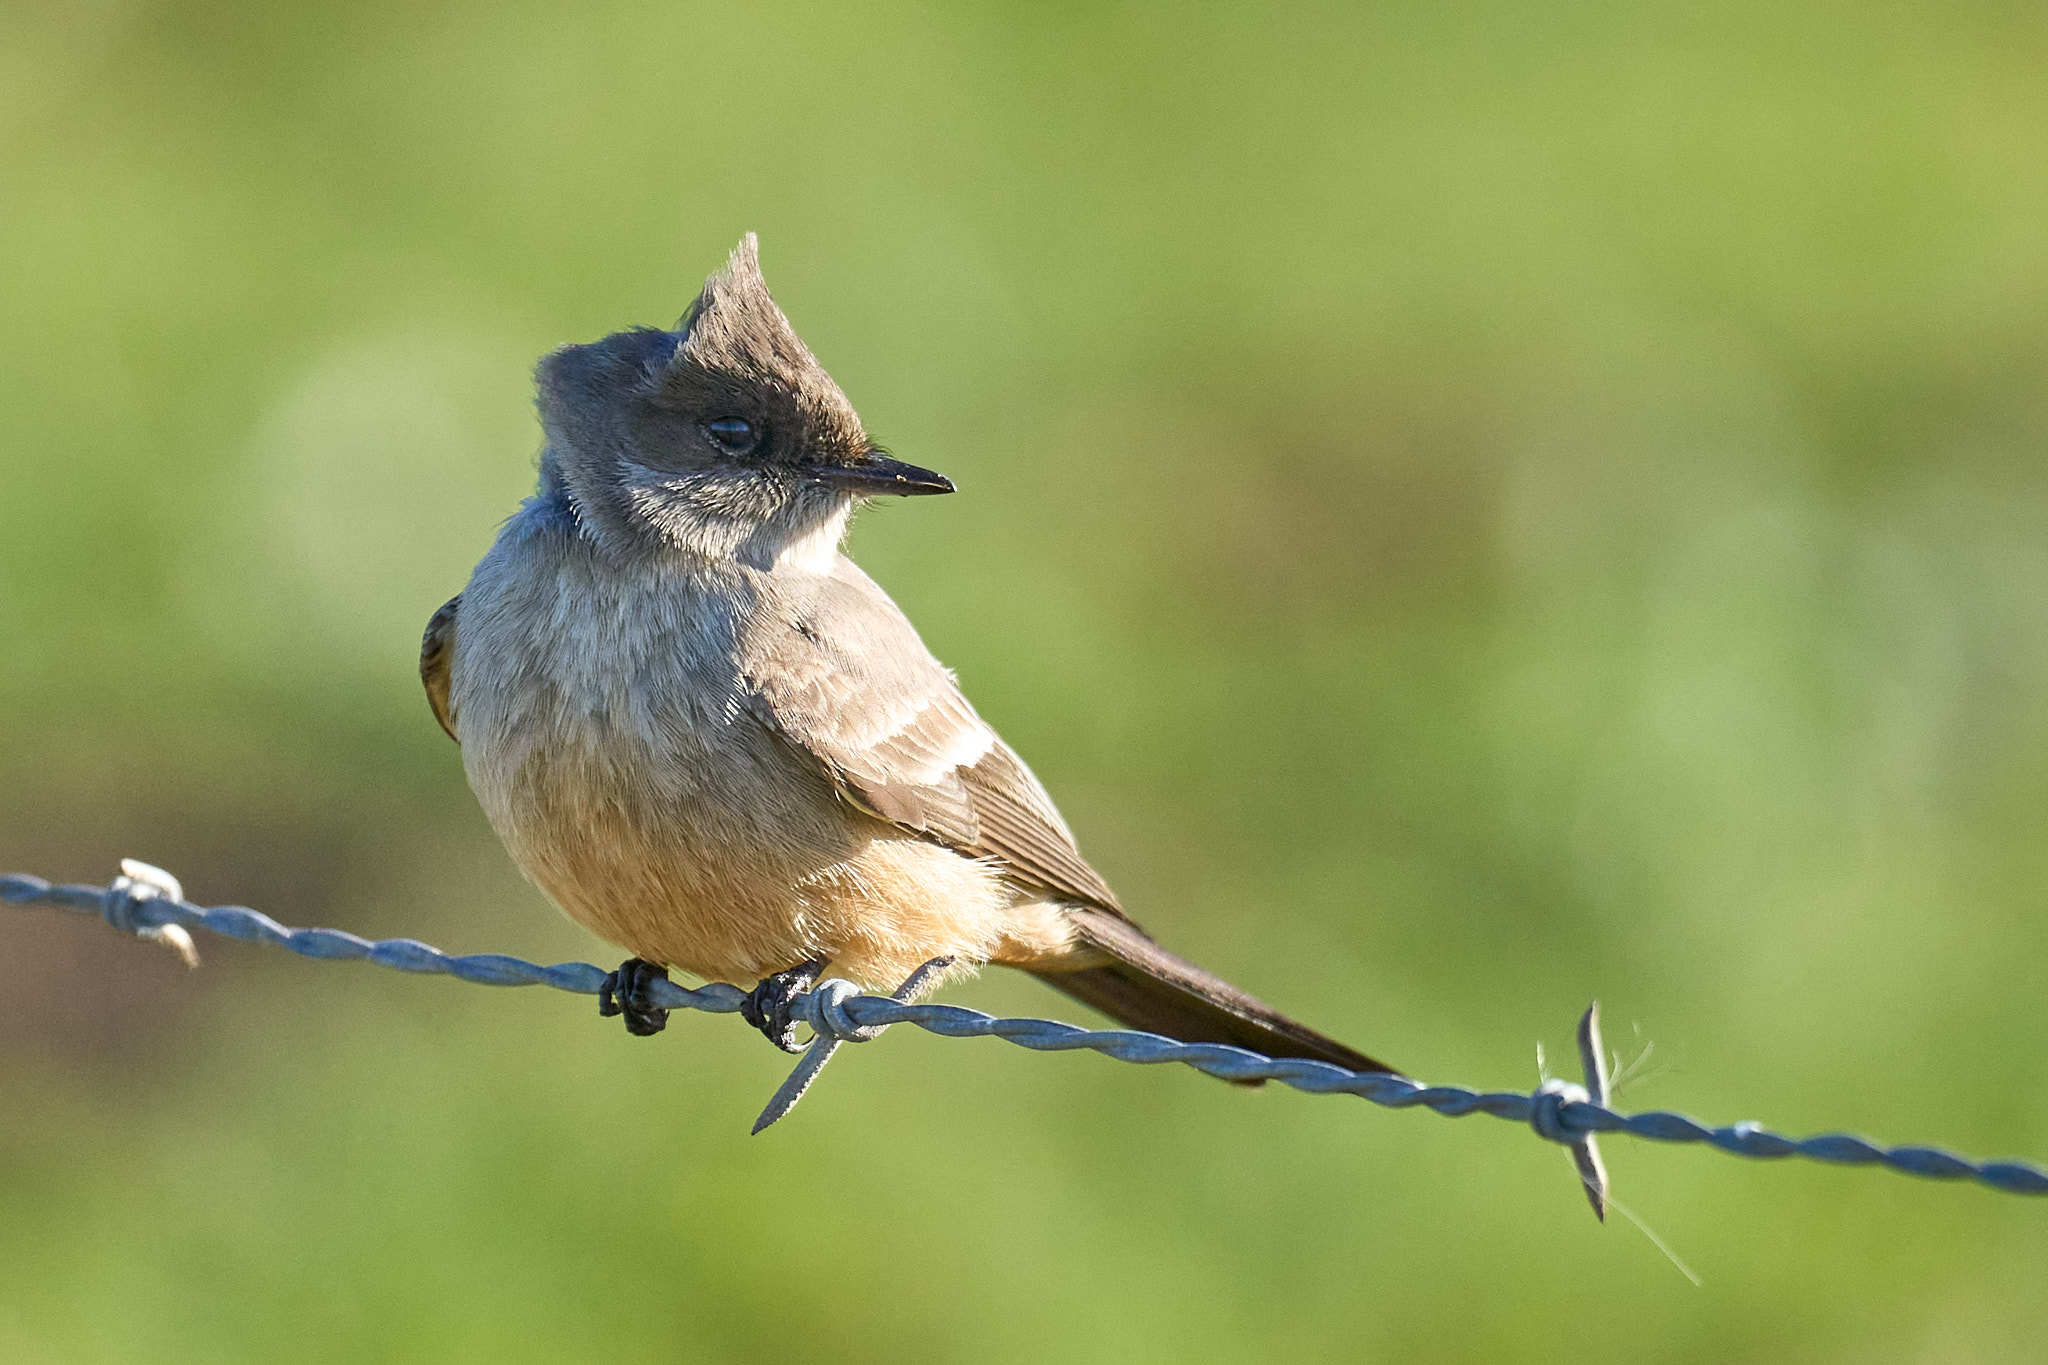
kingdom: Animalia
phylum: Chordata
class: Aves
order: Passeriformes
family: Tyrannidae
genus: Sayornis
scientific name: Sayornis saya
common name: Say's phoebe
